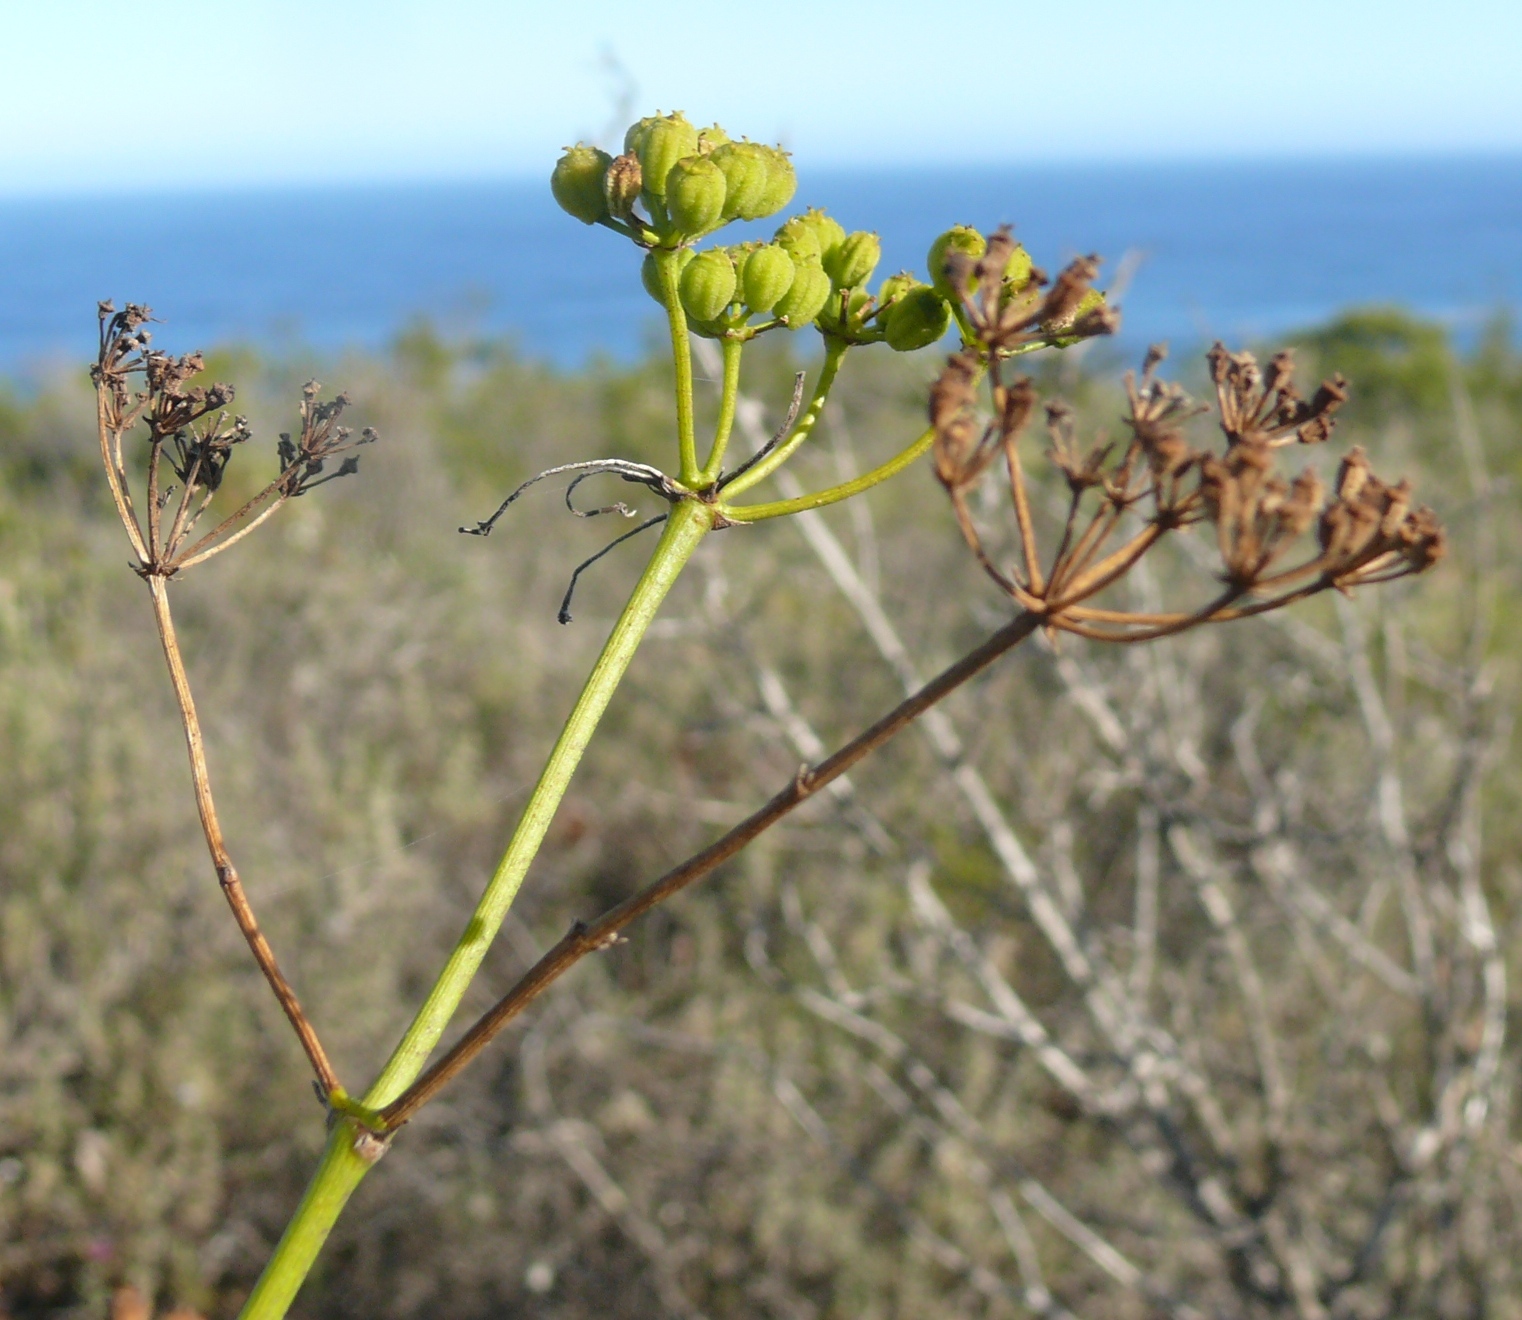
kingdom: Plantae
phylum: Tracheophyta
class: Magnoliopsida
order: Apiales
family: Apiaceae
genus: Anginon
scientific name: Anginon difforme
